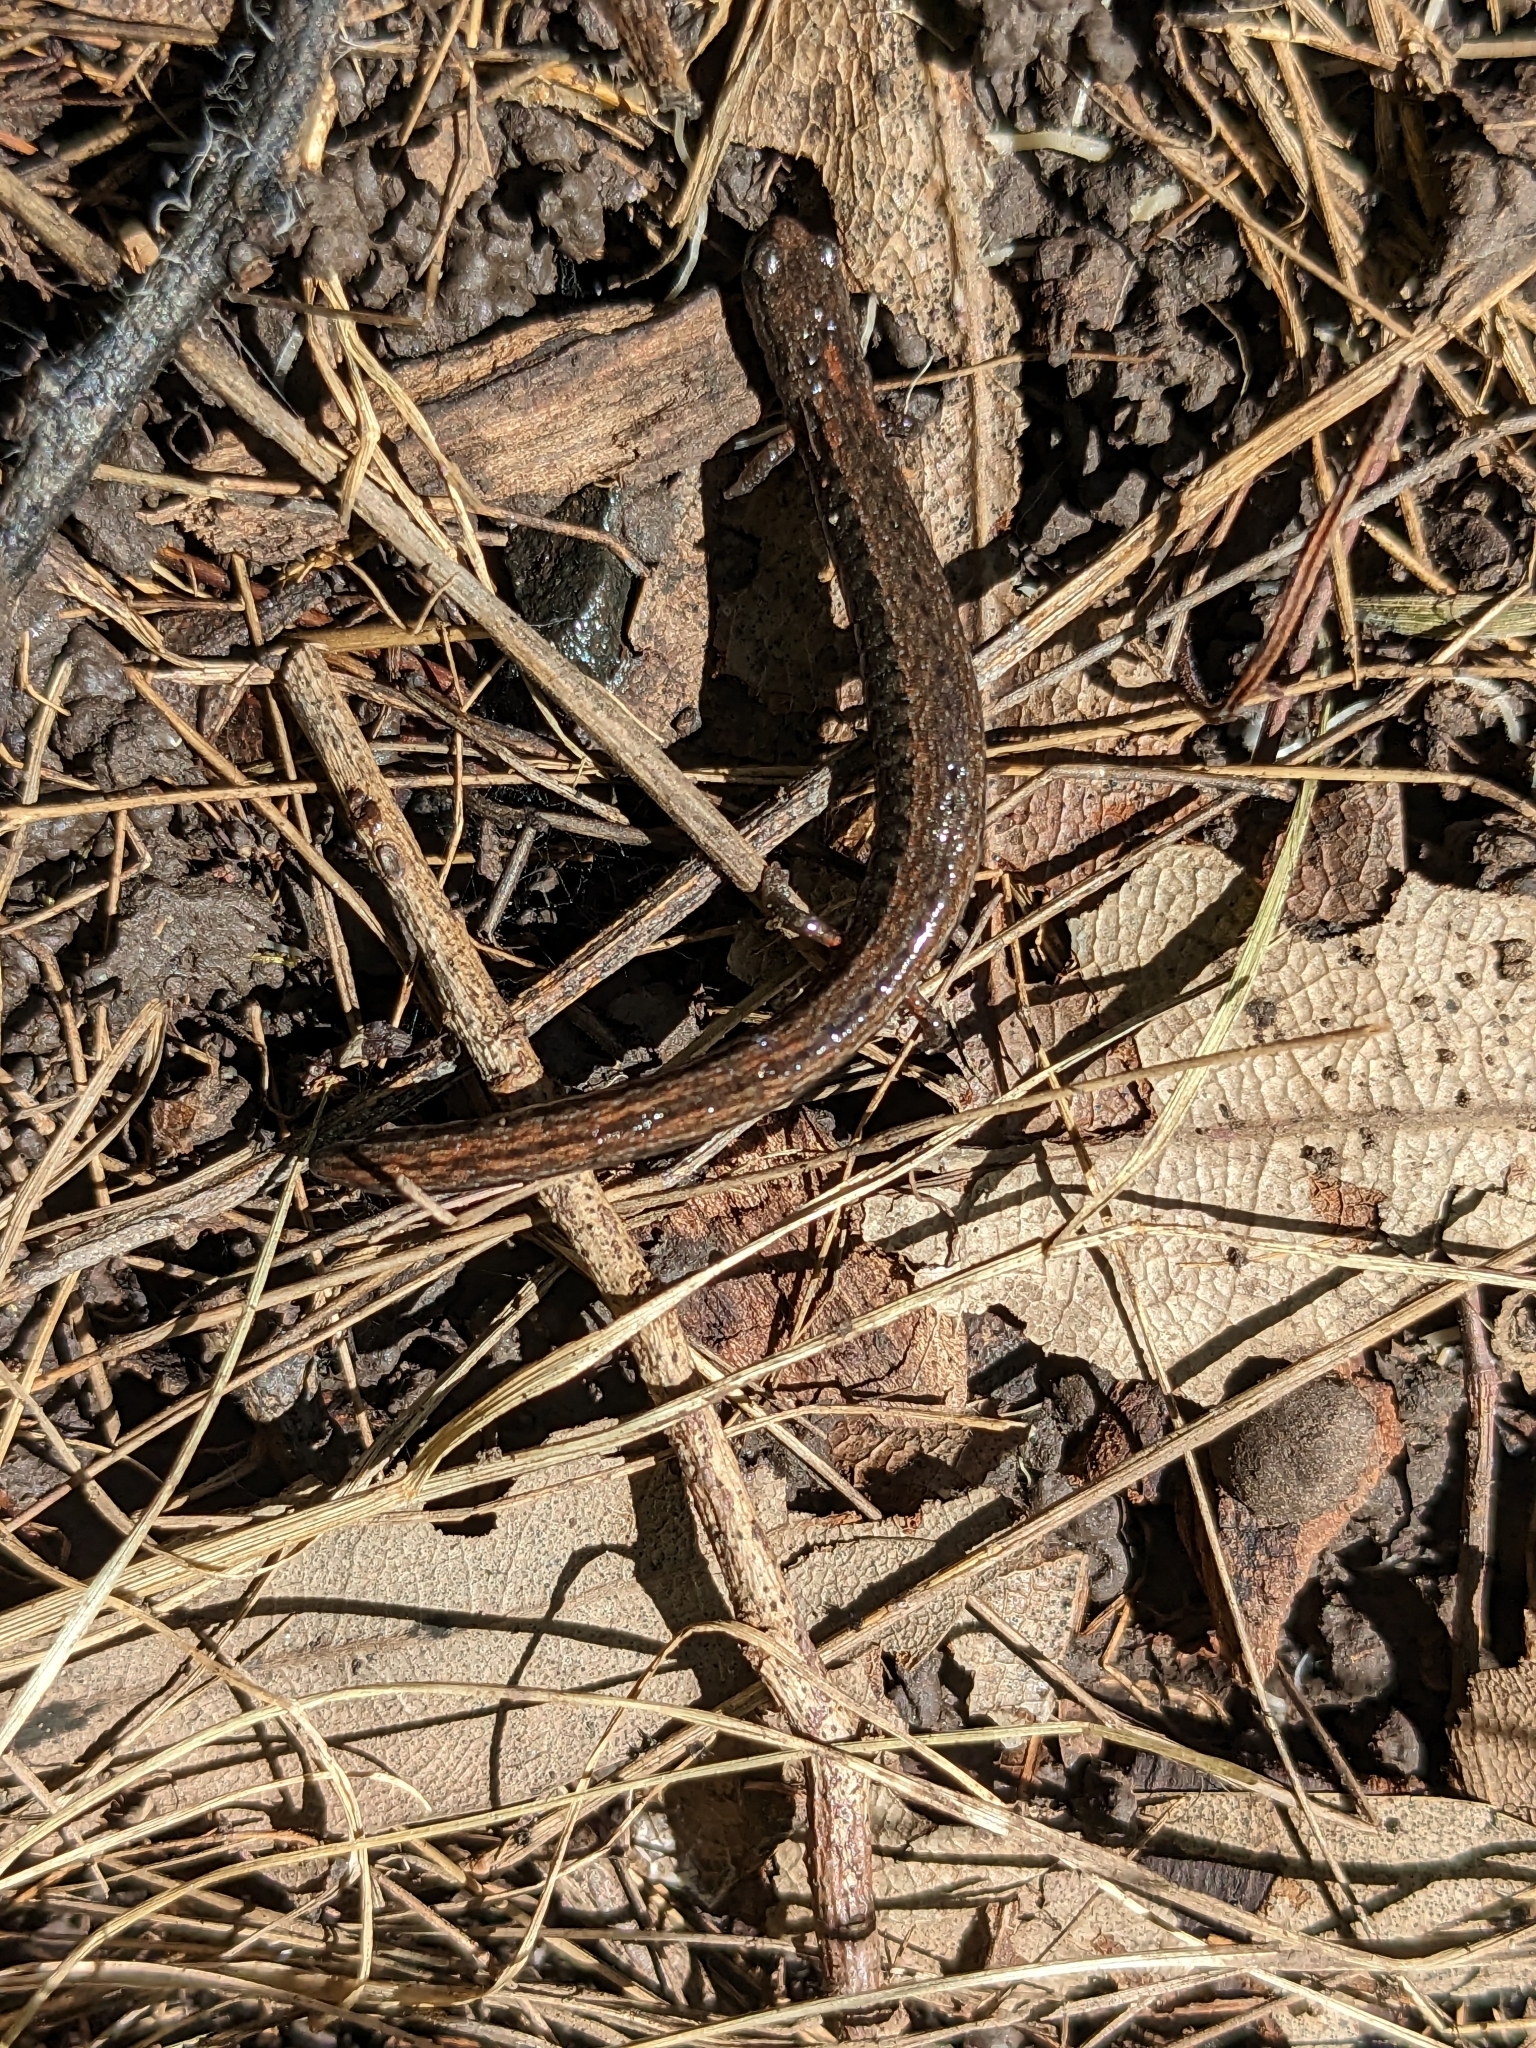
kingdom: Animalia
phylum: Chordata
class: Amphibia
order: Caudata
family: Plethodontidae
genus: Batrachoseps
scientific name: Batrachoseps attenuatus
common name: California slender salamander
